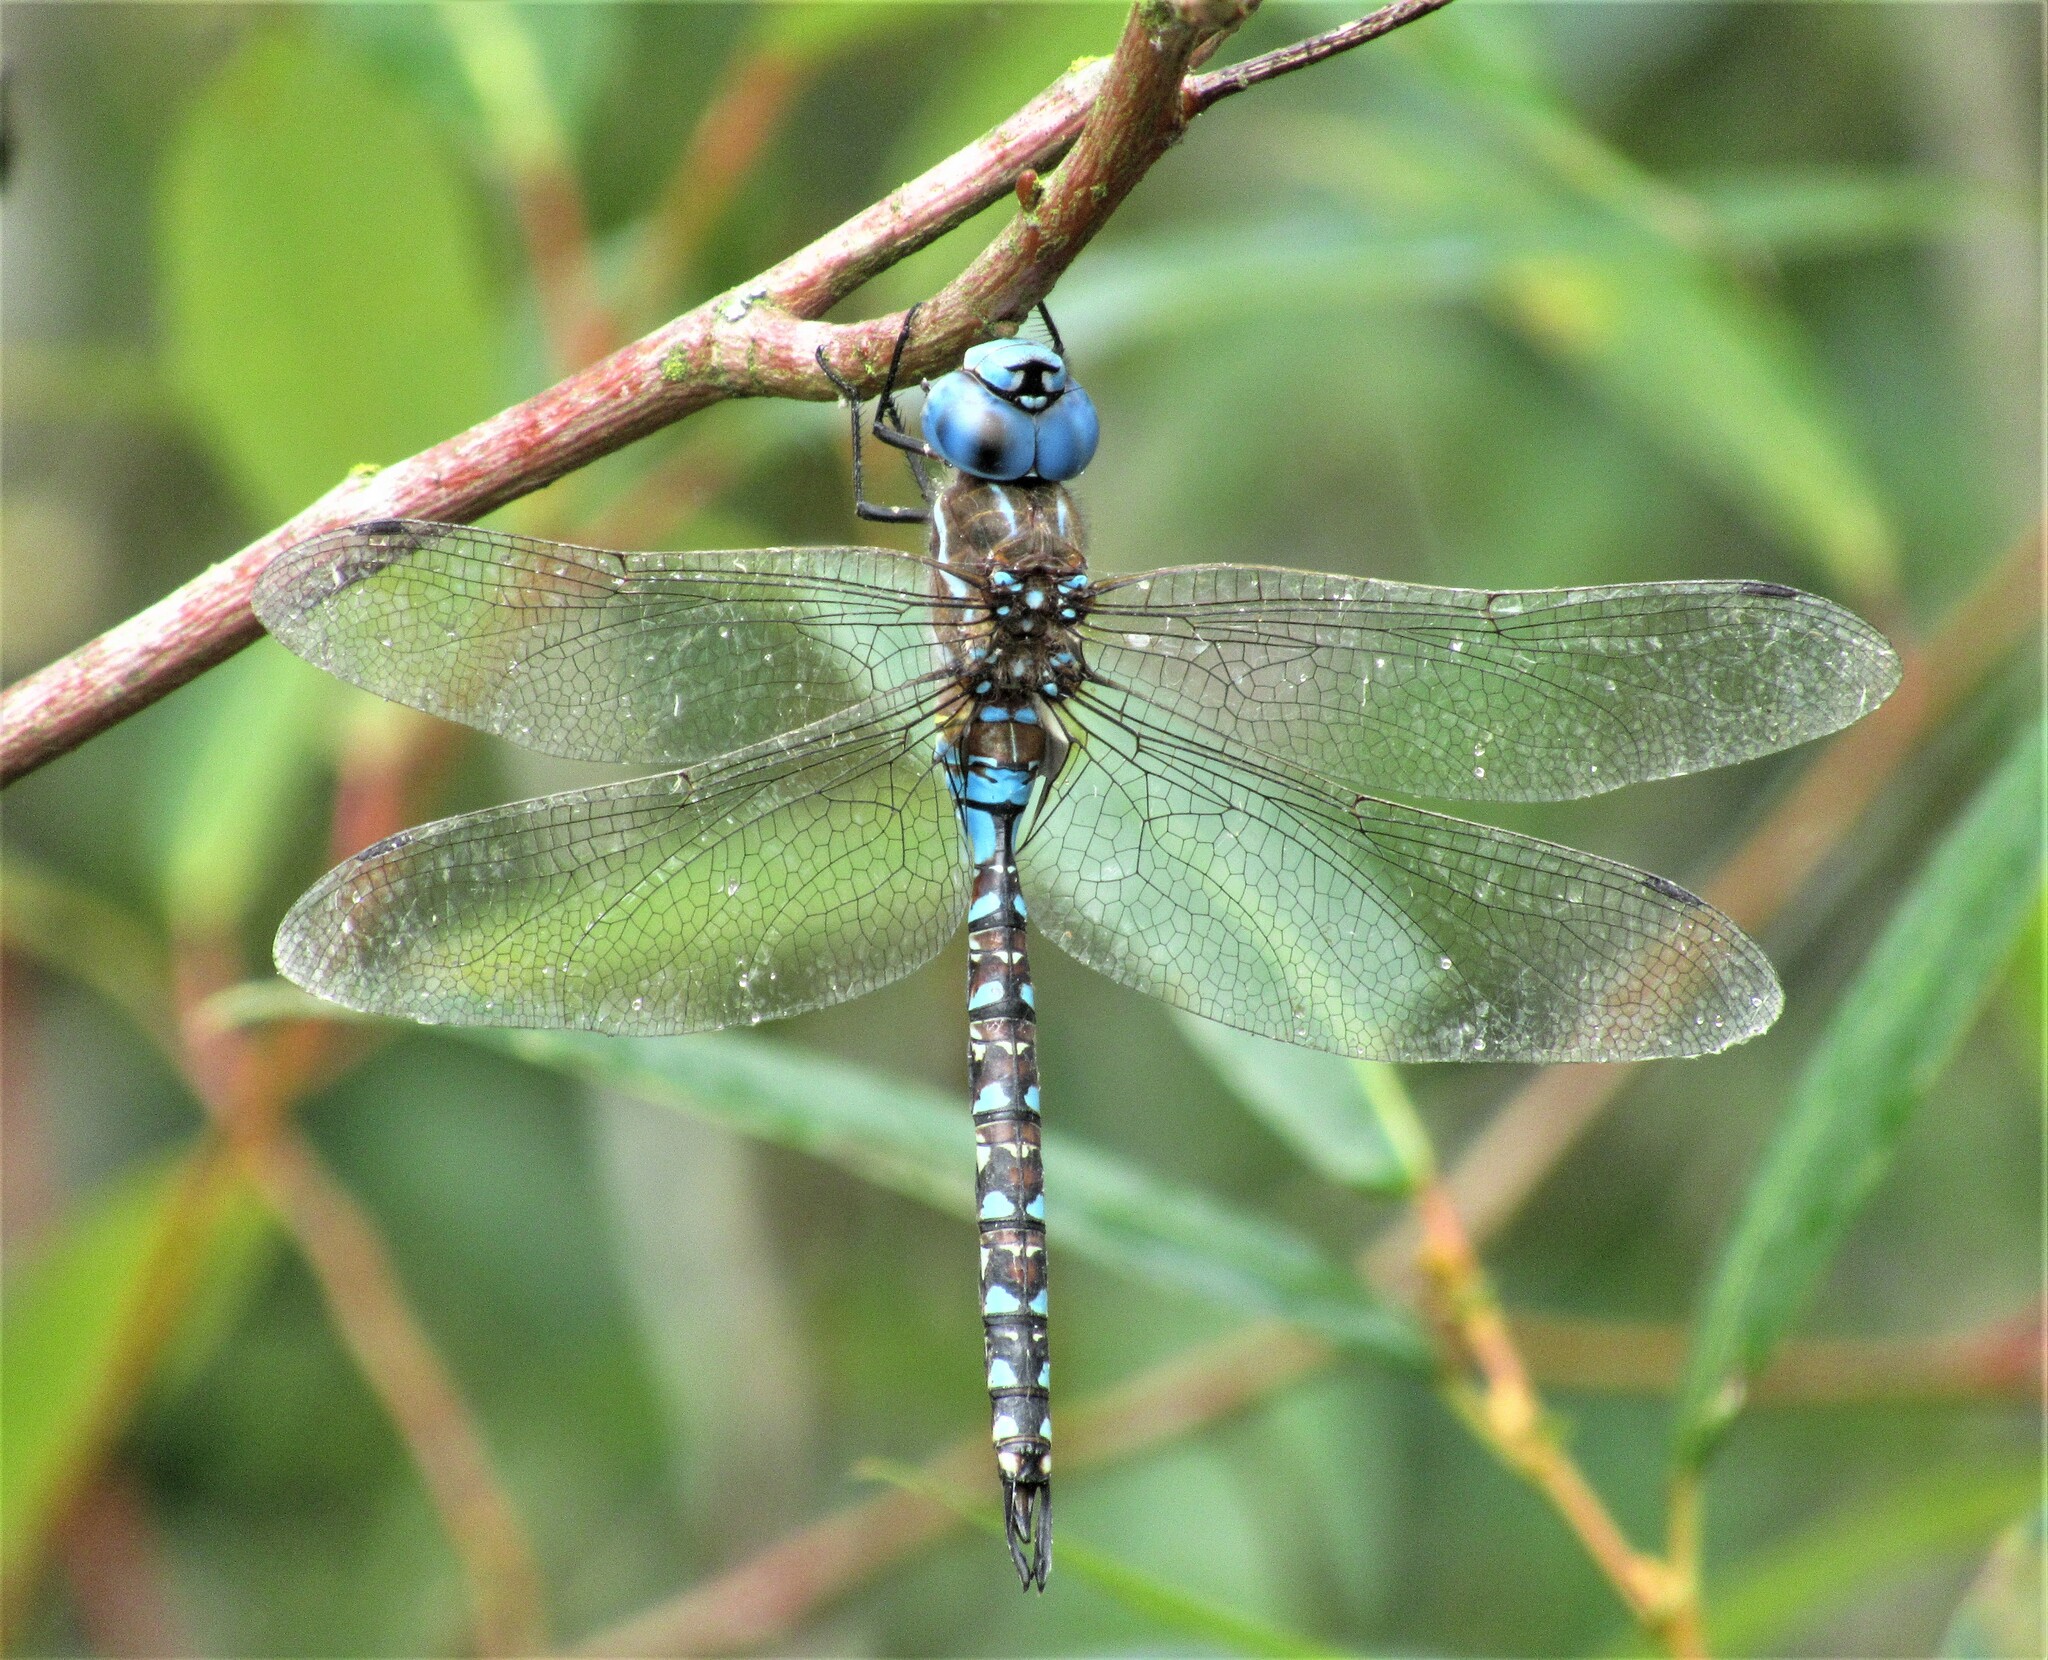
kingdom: Animalia
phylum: Arthropoda
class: Insecta
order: Odonata
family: Aeshnidae
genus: Rhionaeschna
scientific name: Rhionaeschna multicolor
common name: Blue-eyed darner
